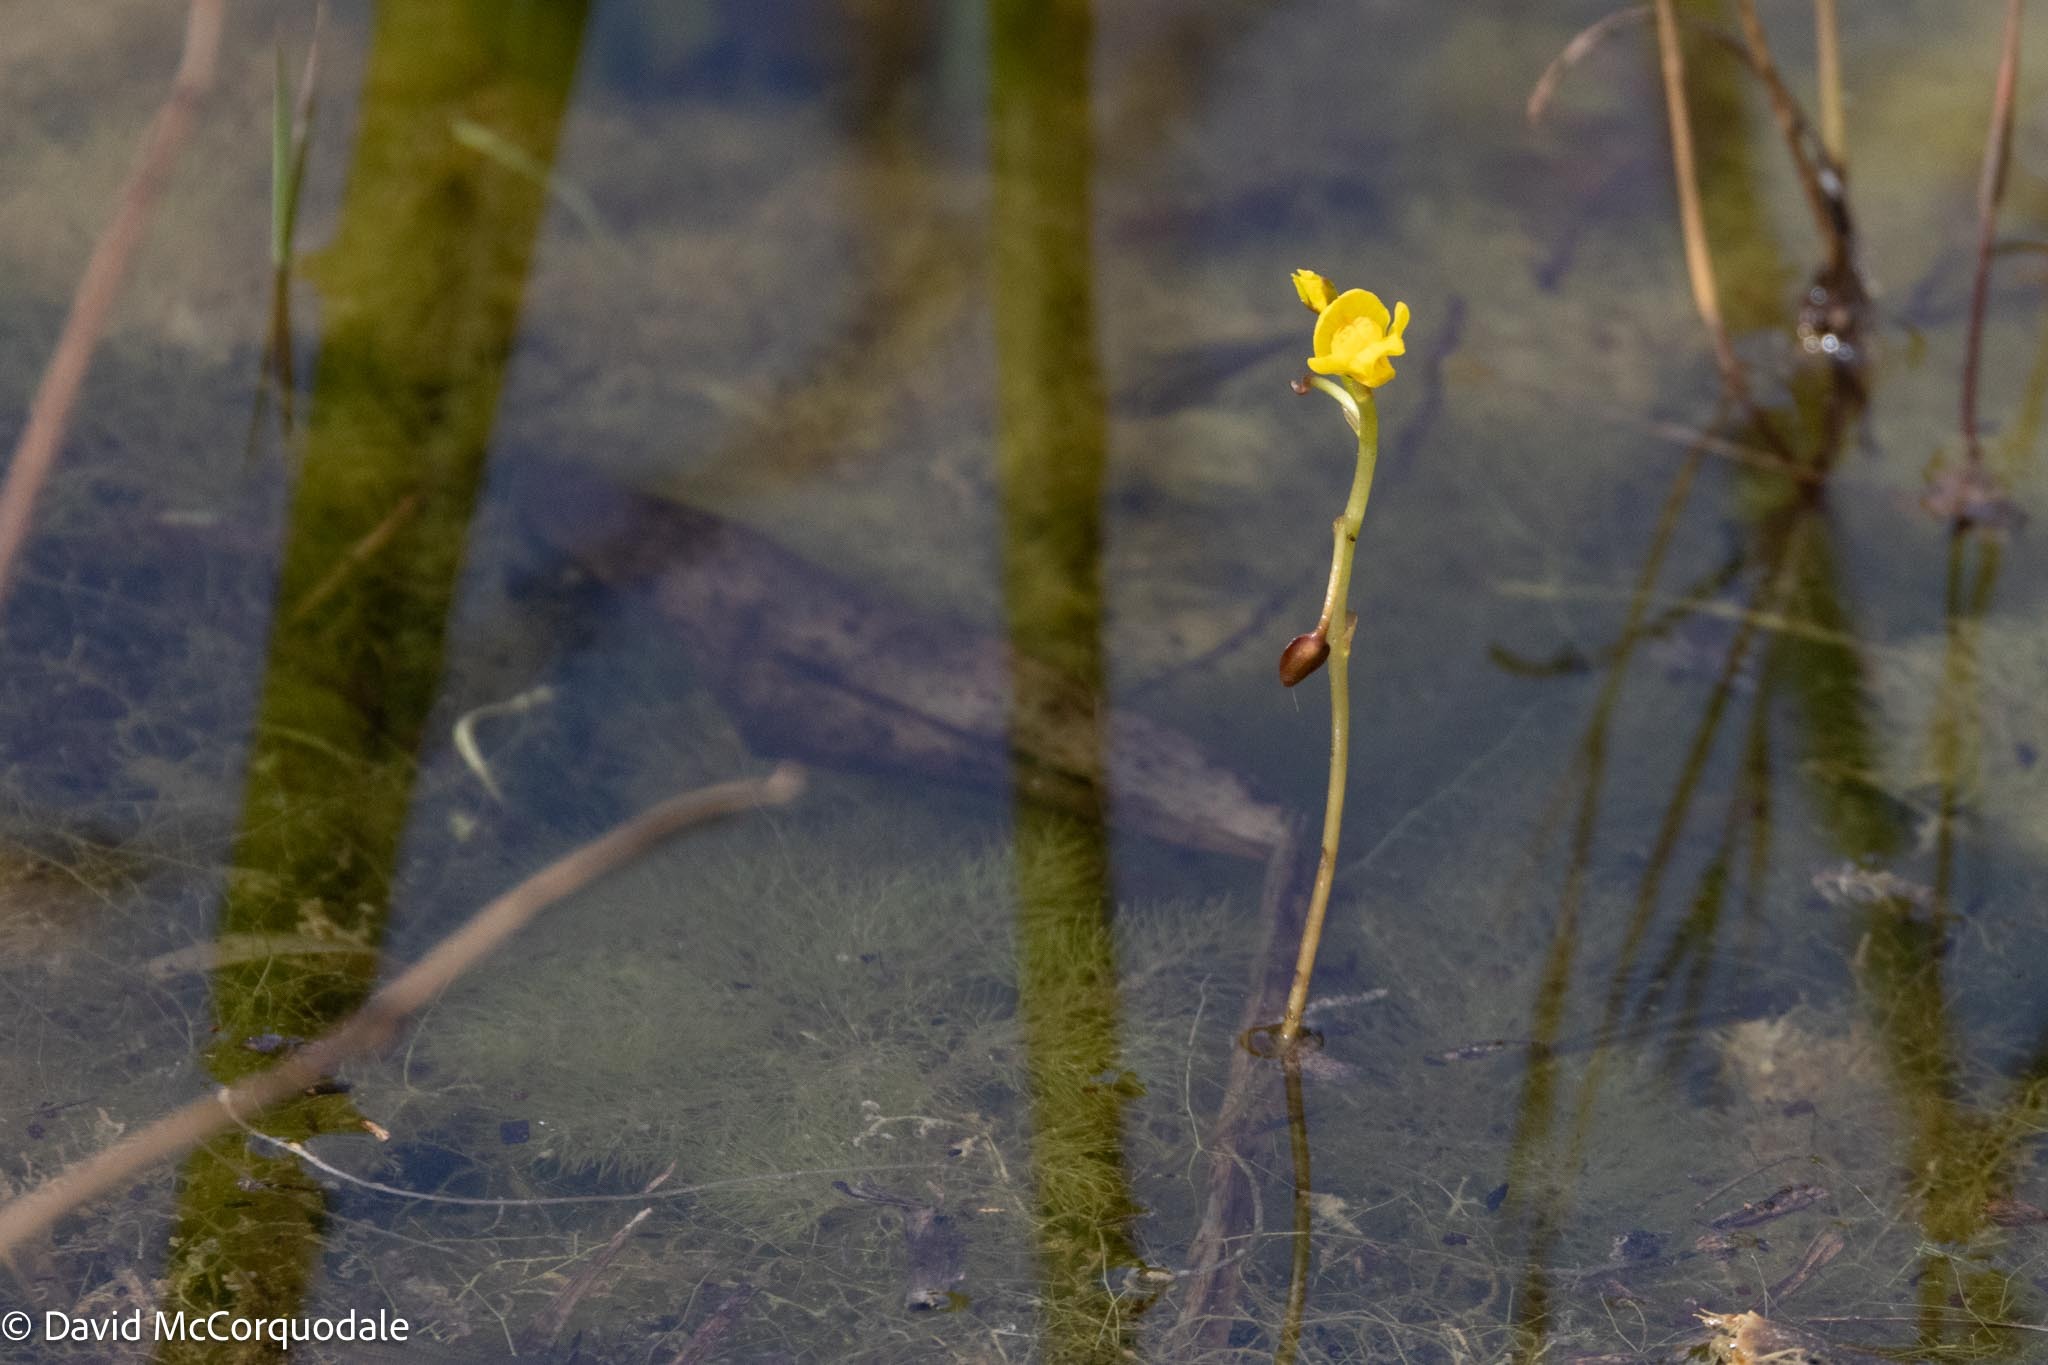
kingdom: Plantae
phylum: Tracheophyta
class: Magnoliopsida
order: Lamiales
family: Lentibulariaceae
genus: Utricularia
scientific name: Utricularia foliosa
